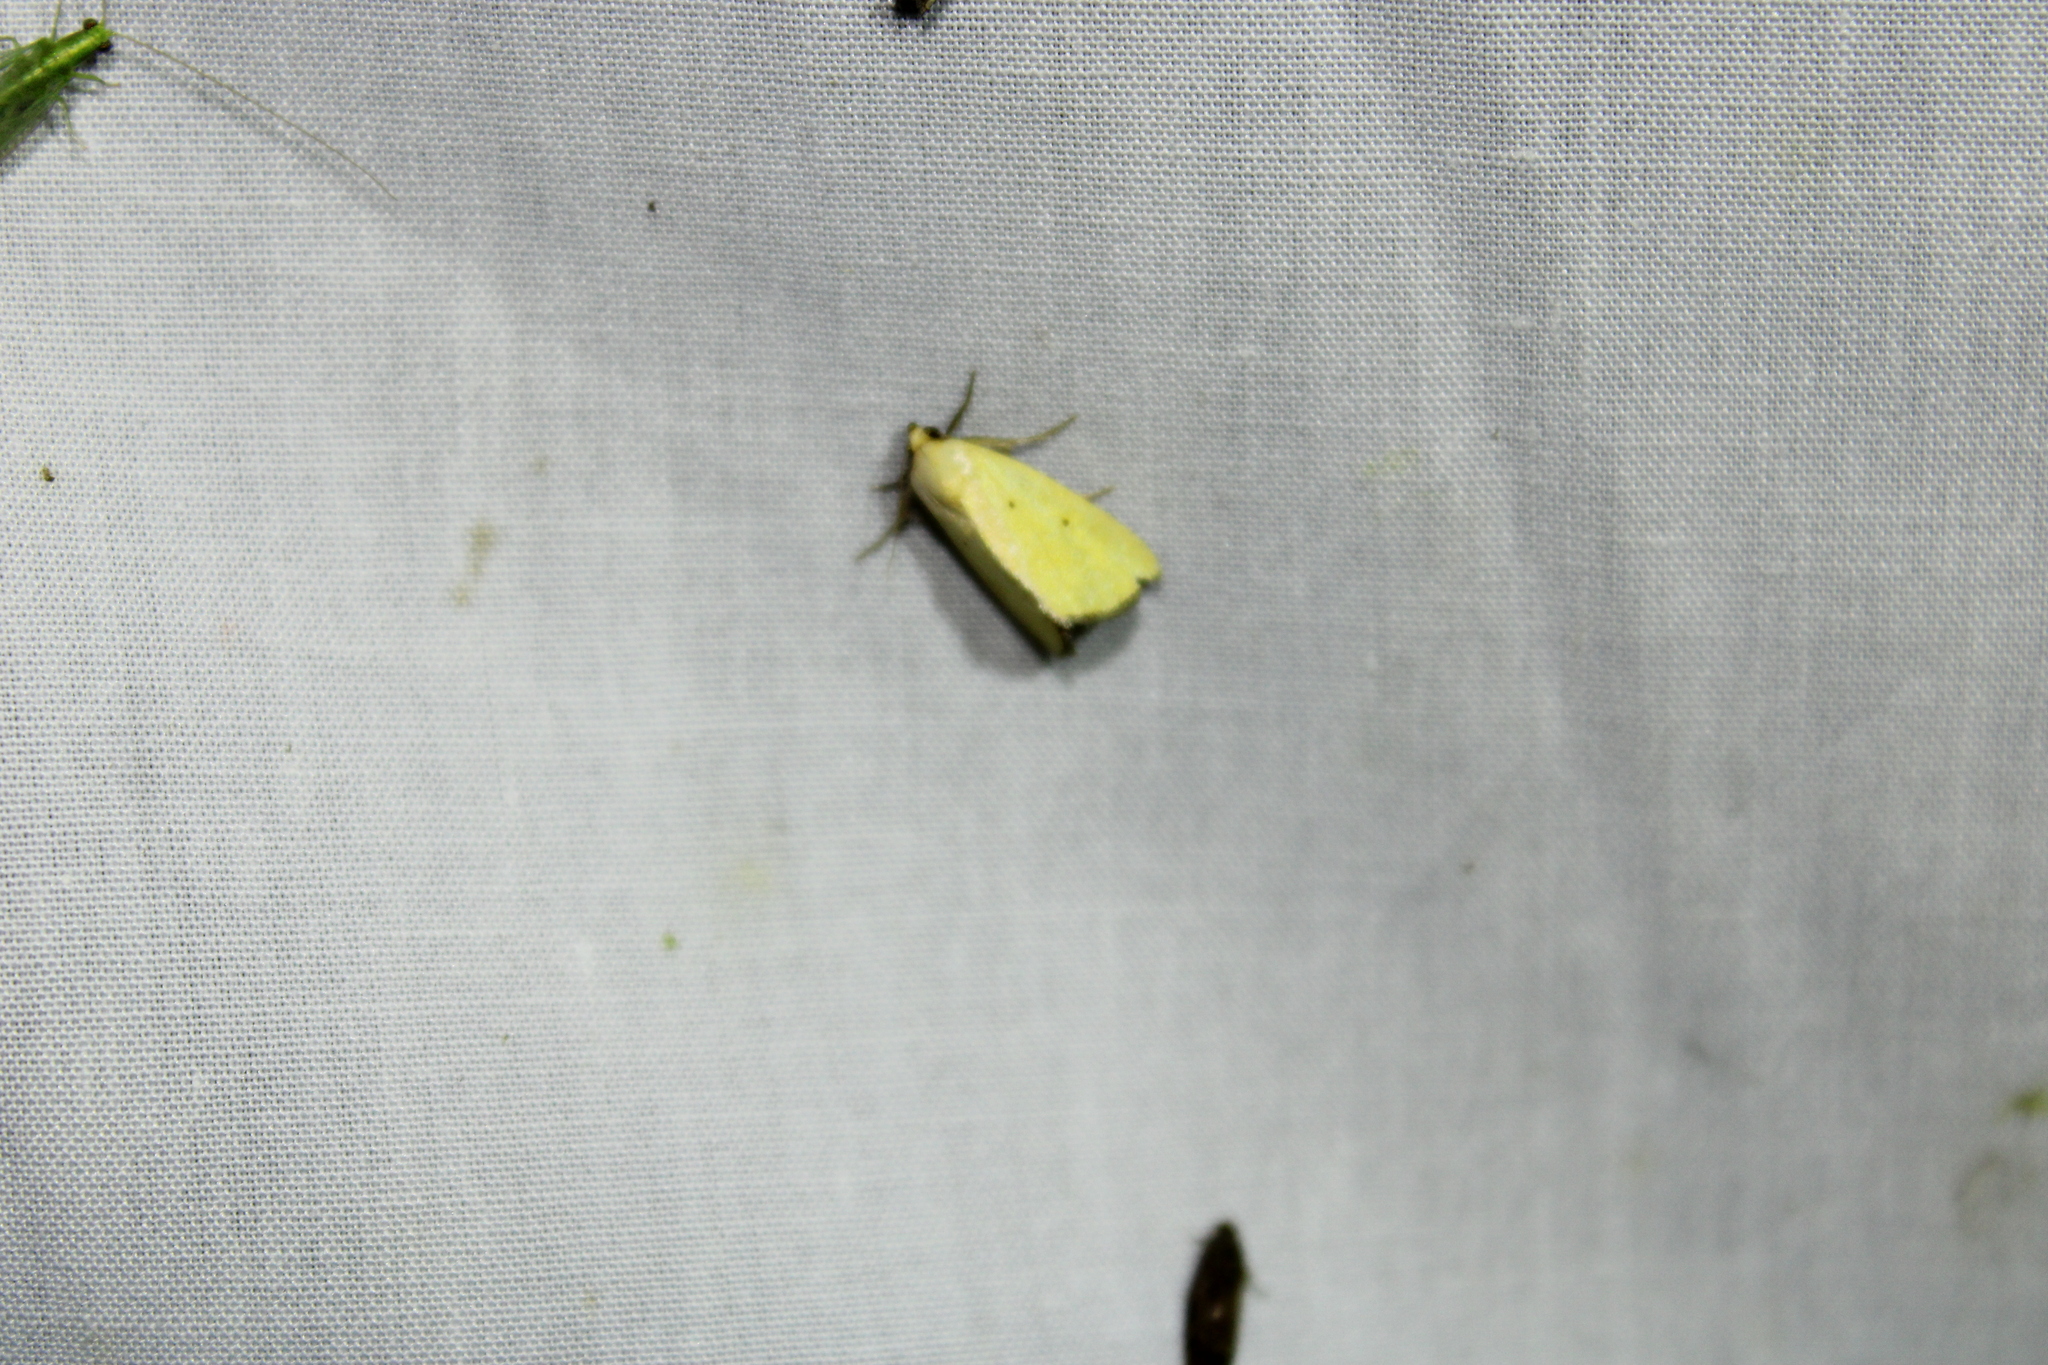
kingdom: Animalia
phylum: Arthropoda
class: Insecta
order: Lepidoptera
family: Noctuidae
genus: Marimatha
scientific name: Marimatha nigrofimbria
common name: Black-bordered lemon moth
